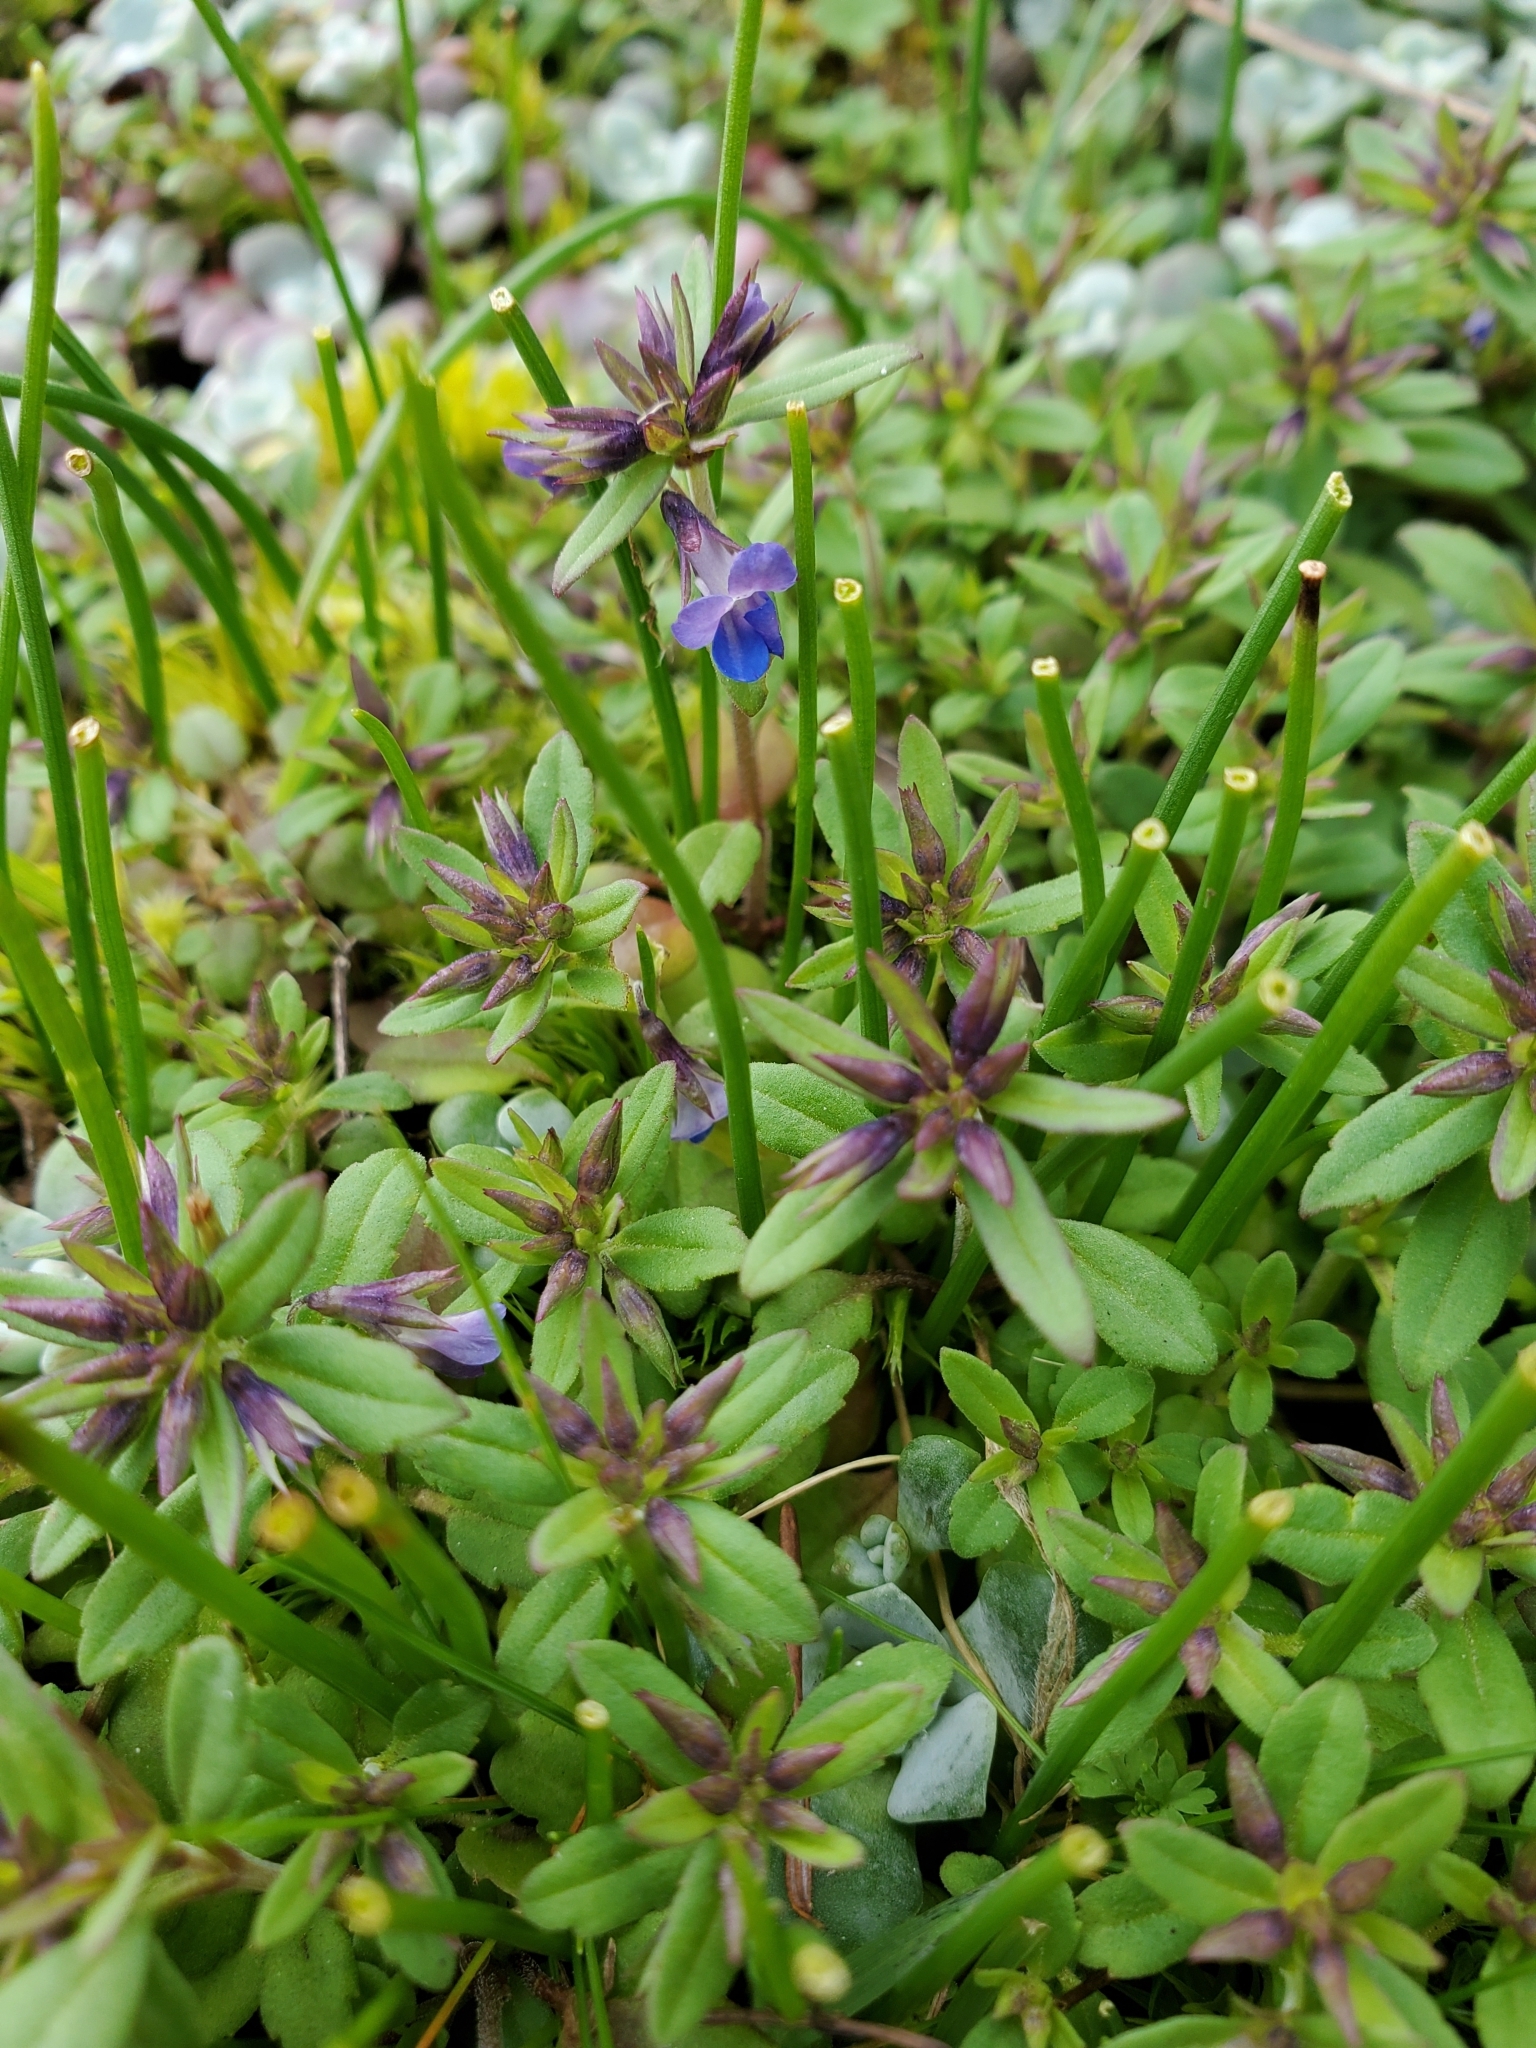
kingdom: Plantae
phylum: Tracheophyta
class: Magnoliopsida
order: Lamiales
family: Plantaginaceae
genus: Collinsia
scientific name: Collinsia parviflora
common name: Blue-lips
